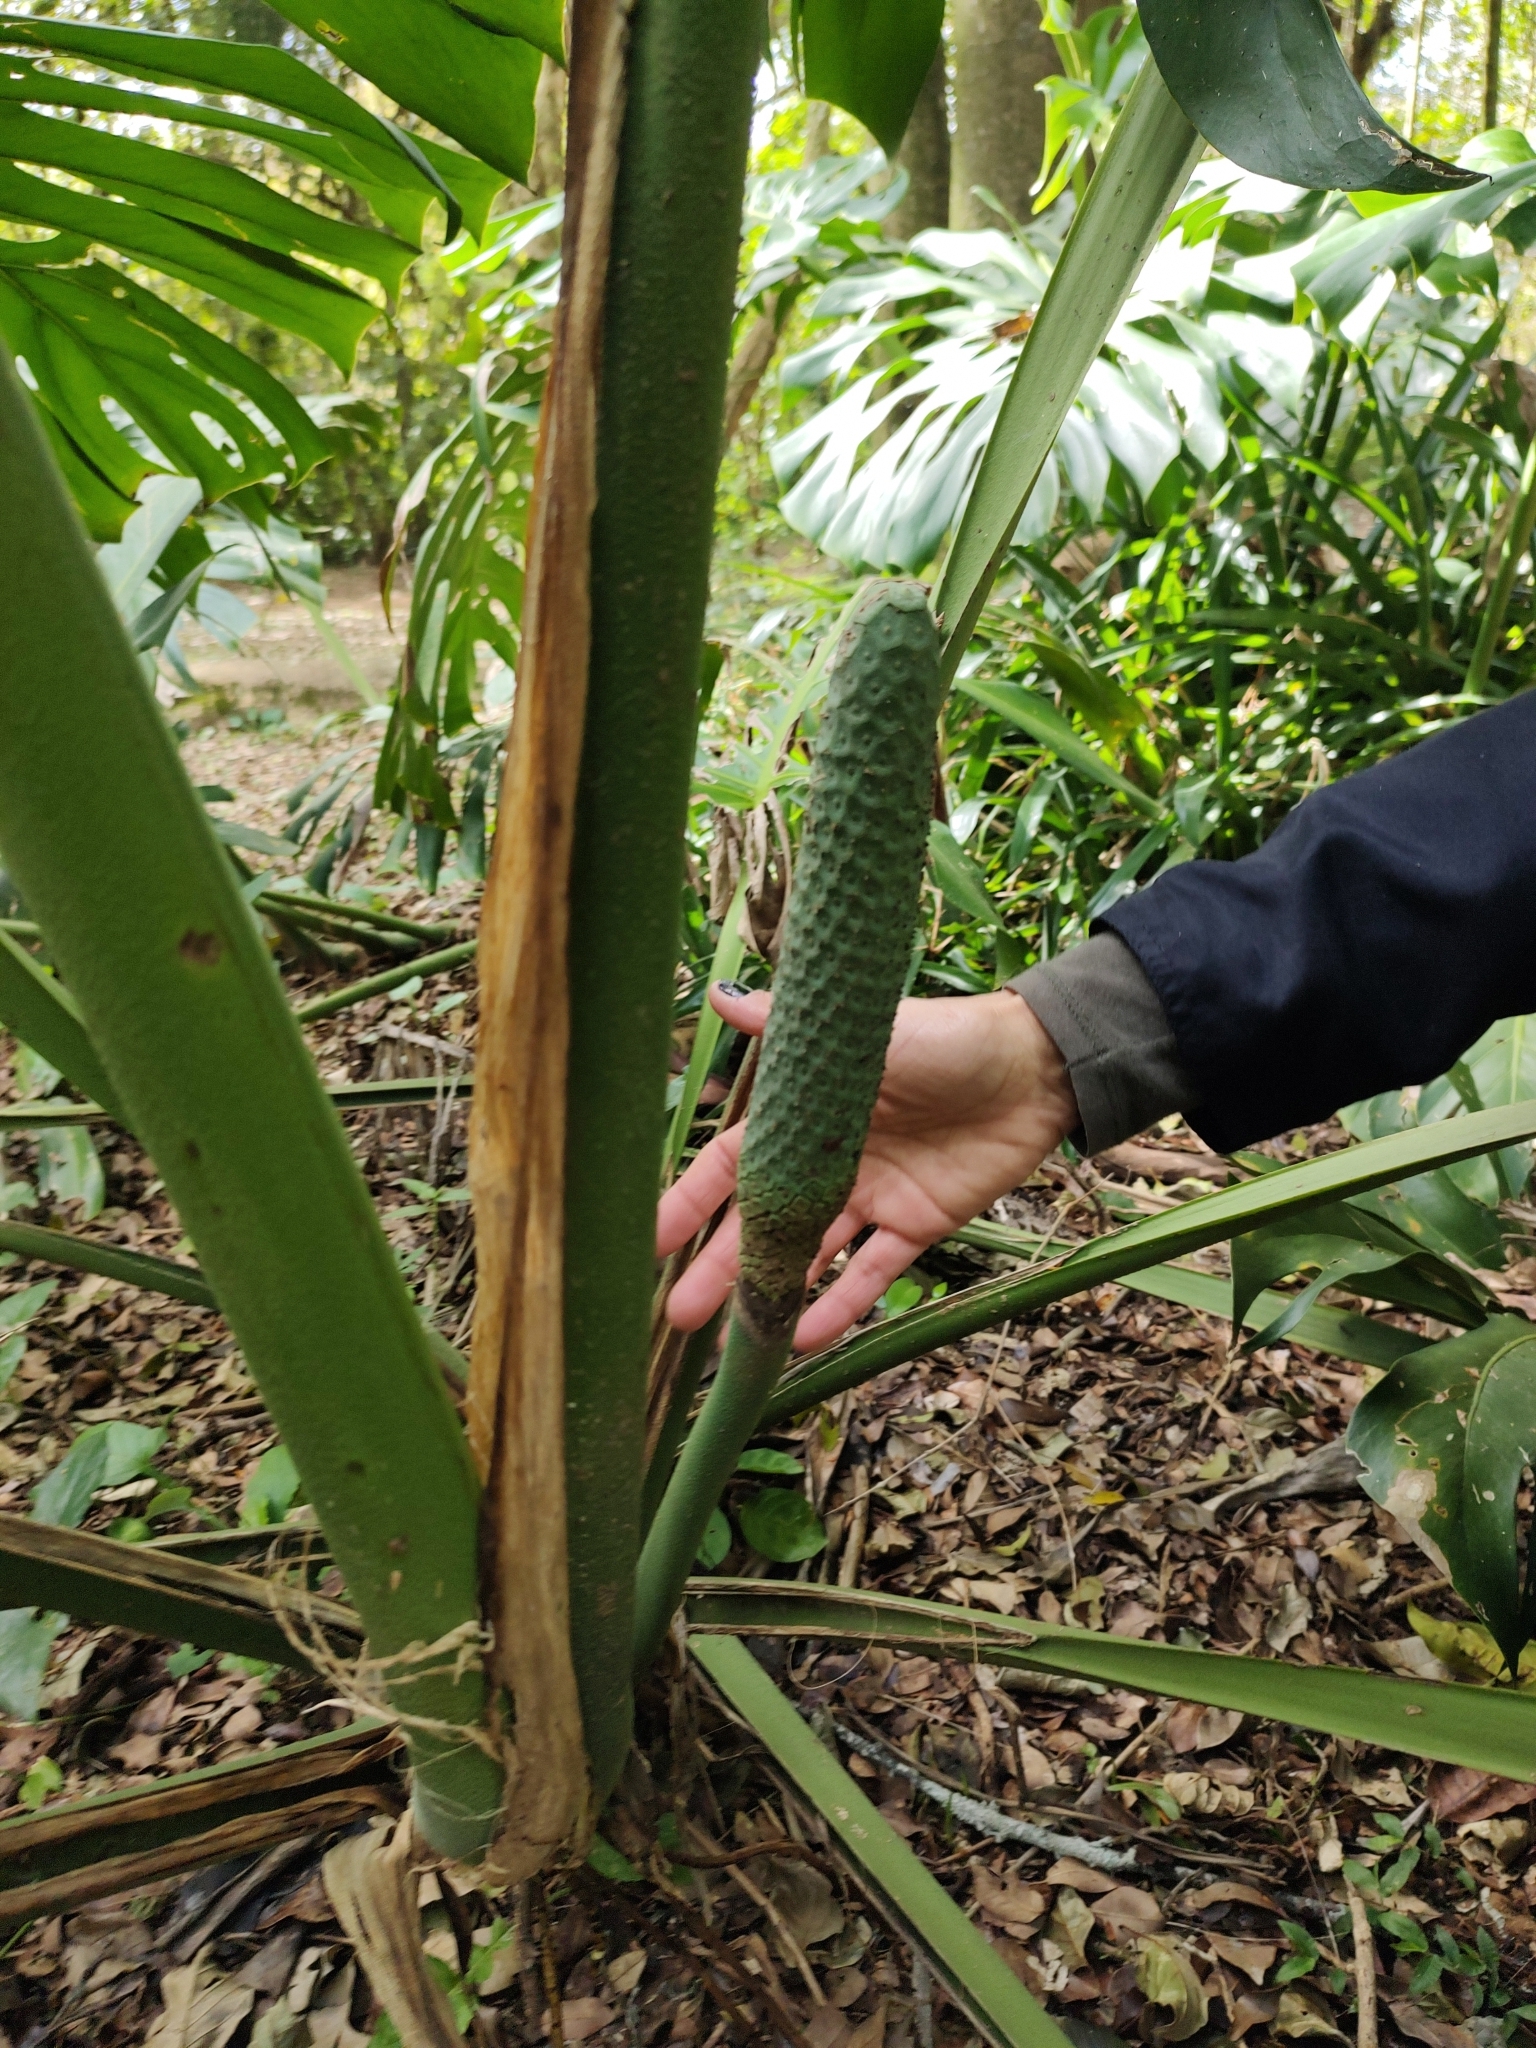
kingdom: Plantae
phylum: Tracheophyta
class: Liliopsida
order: Alismatales
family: Araceae
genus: Monstera
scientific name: Monstera deliciosa
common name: Cut-leaf-philodendron
